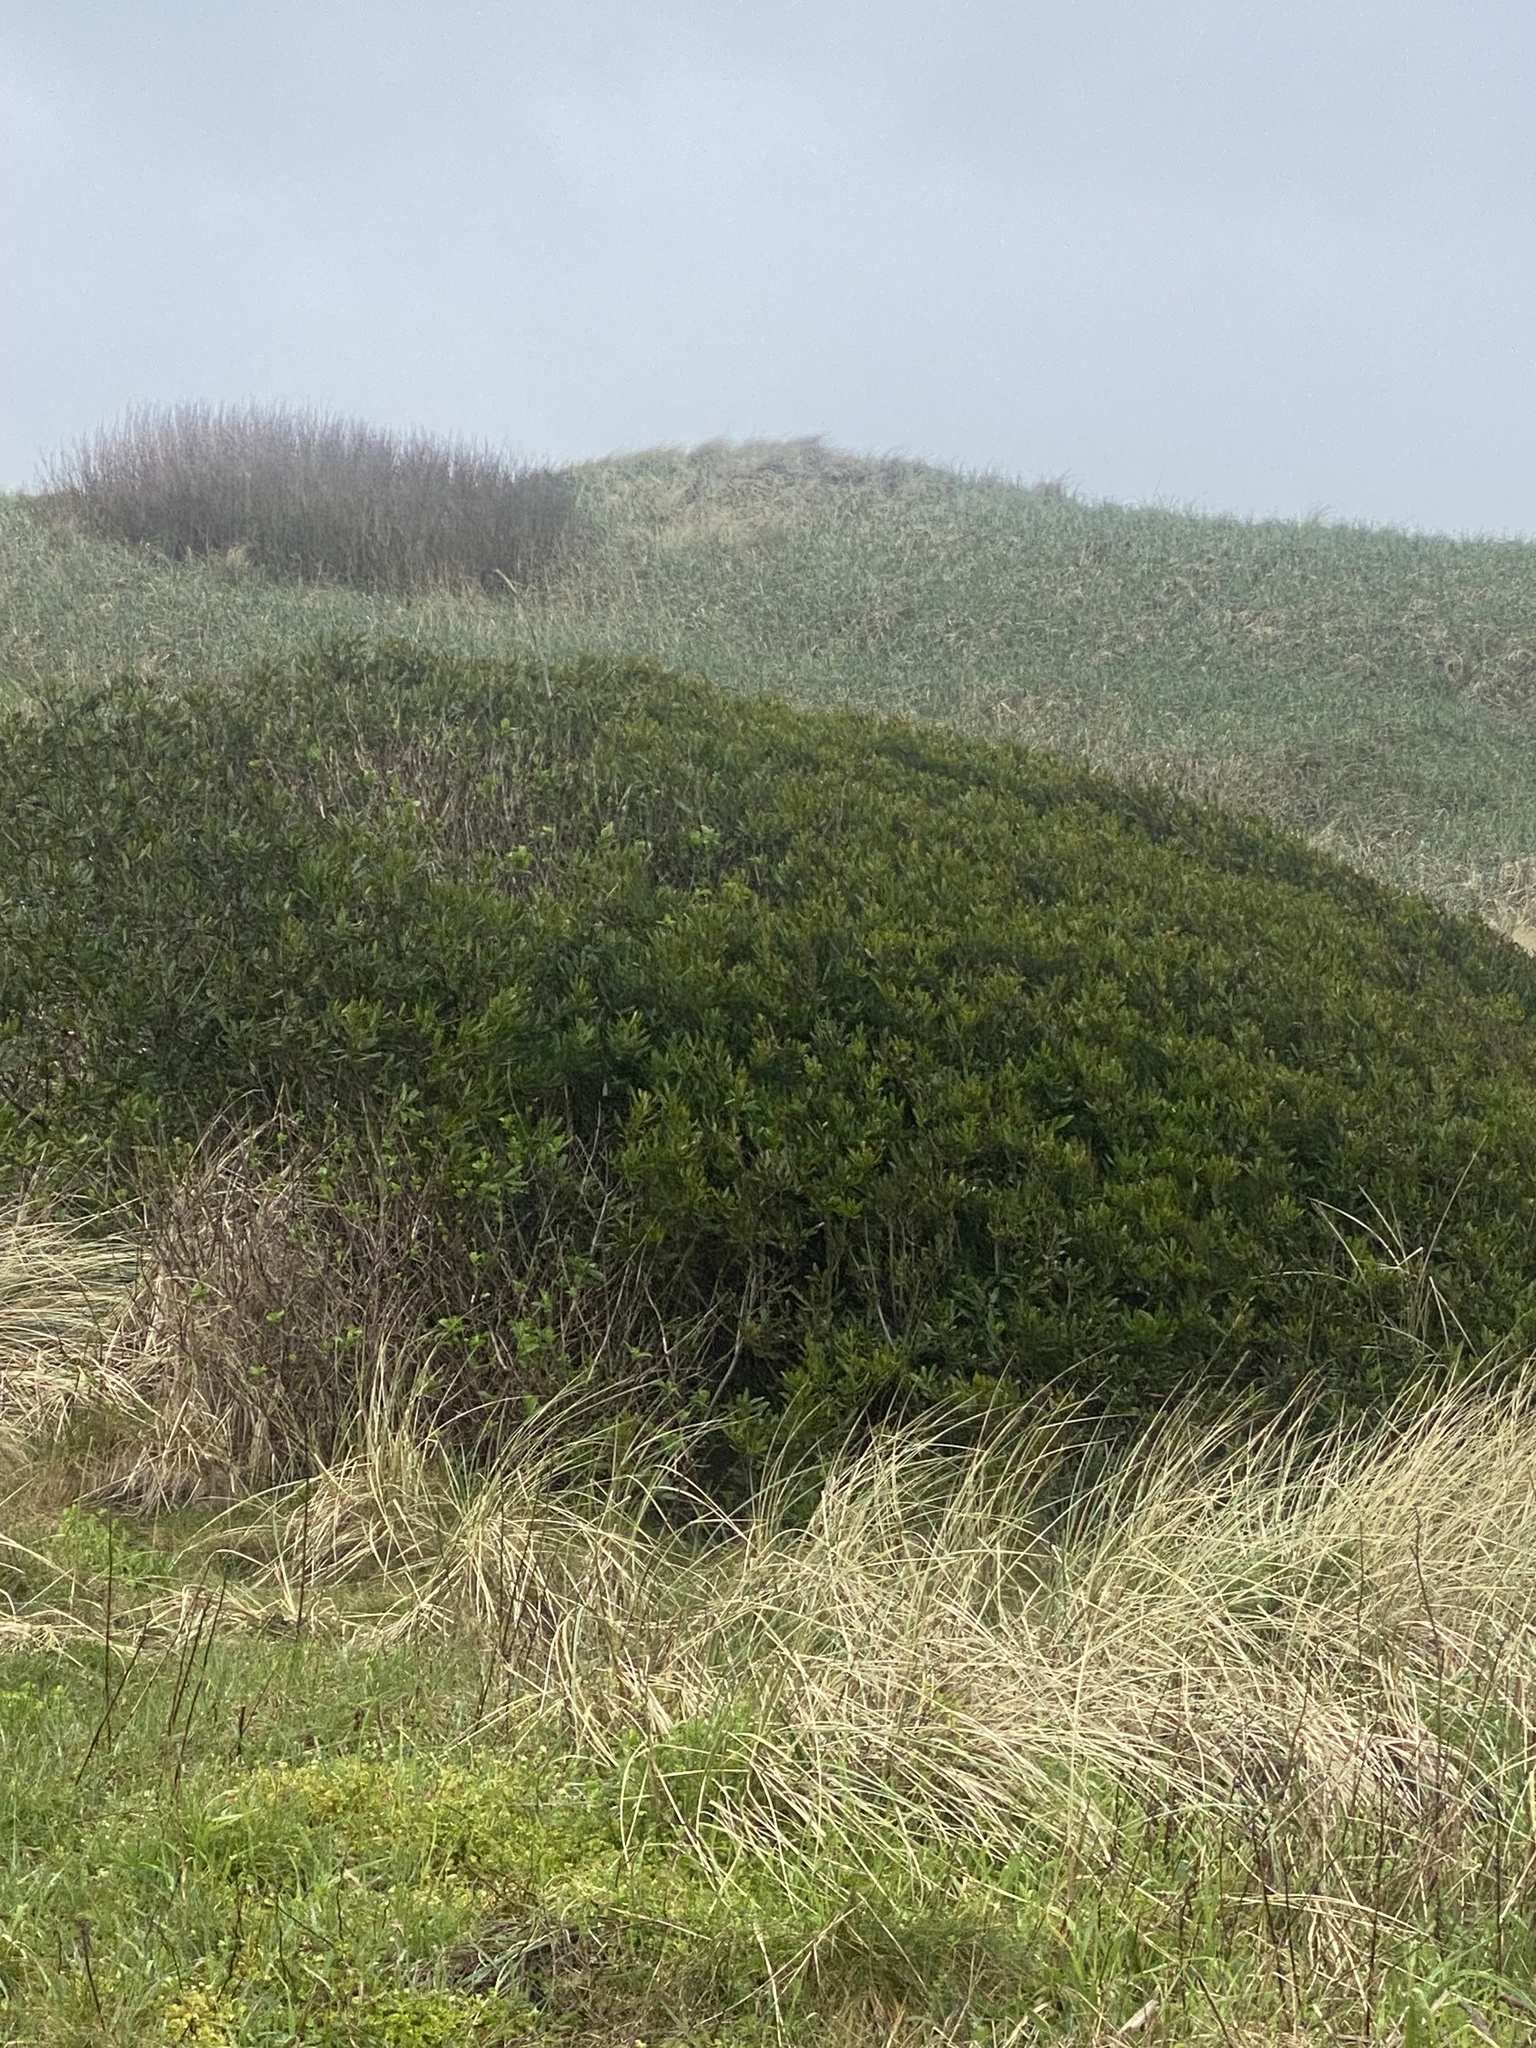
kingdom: Plantae
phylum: Tracheophyta
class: Magnoliopsida
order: Fagales
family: Myricaceae
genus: Morella
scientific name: Morella californica
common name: California wax-myrtle
